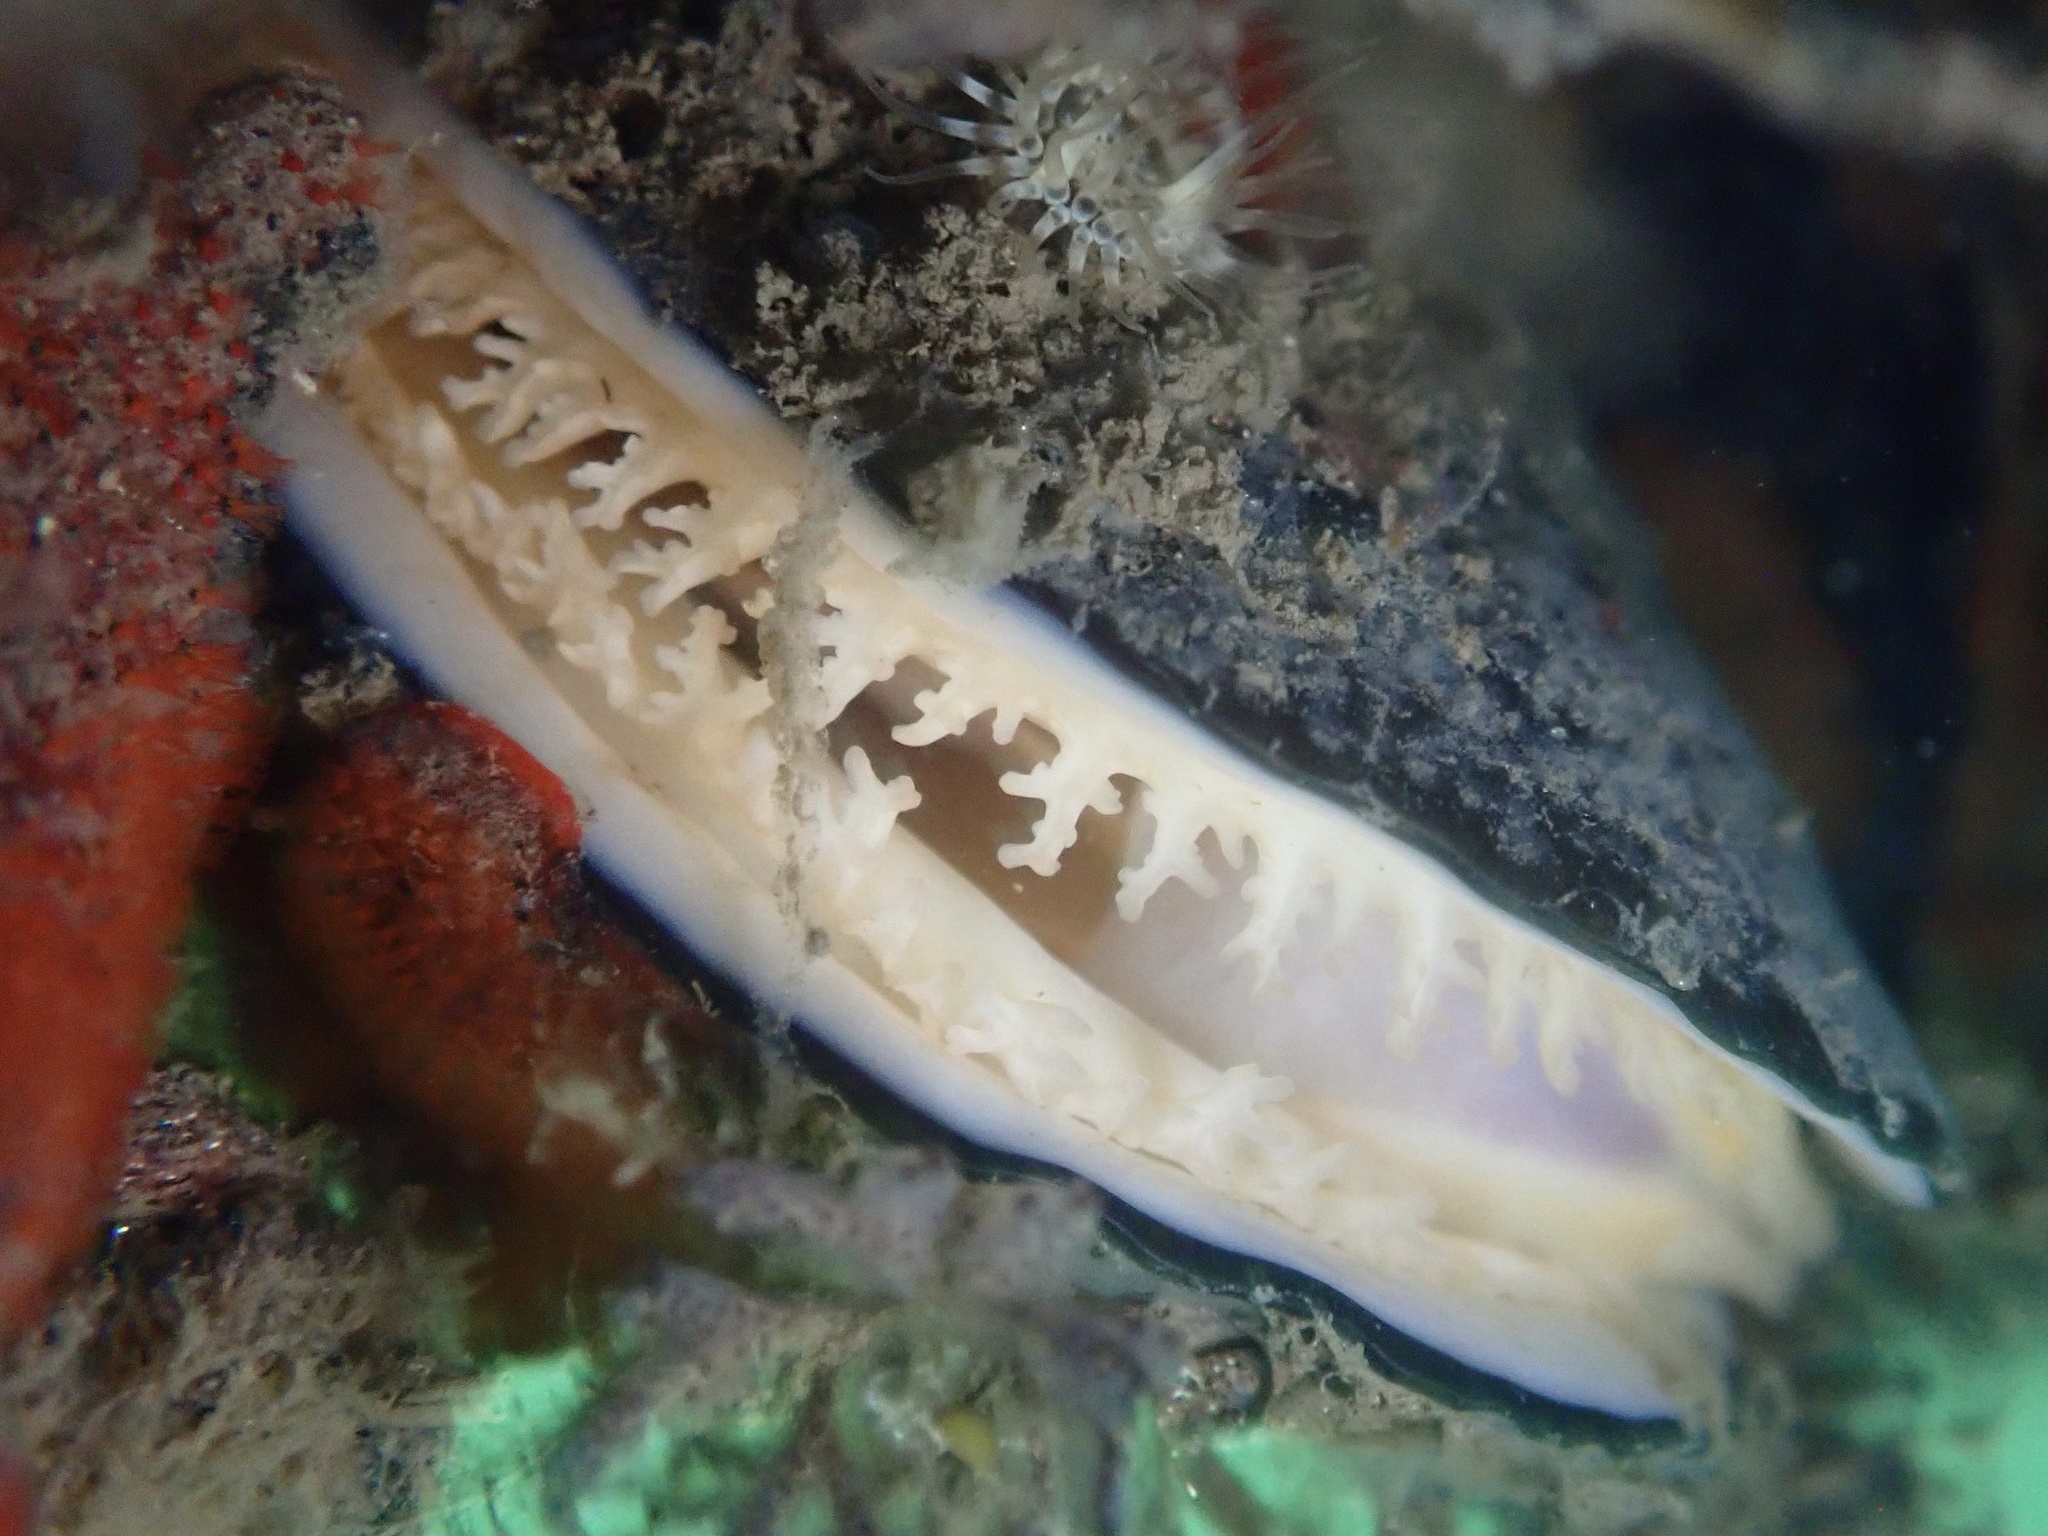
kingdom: Animalia
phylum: Mollusca
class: Bivalvia
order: Mytilida
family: Mytilidae
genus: Mytilus
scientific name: Mytilus
